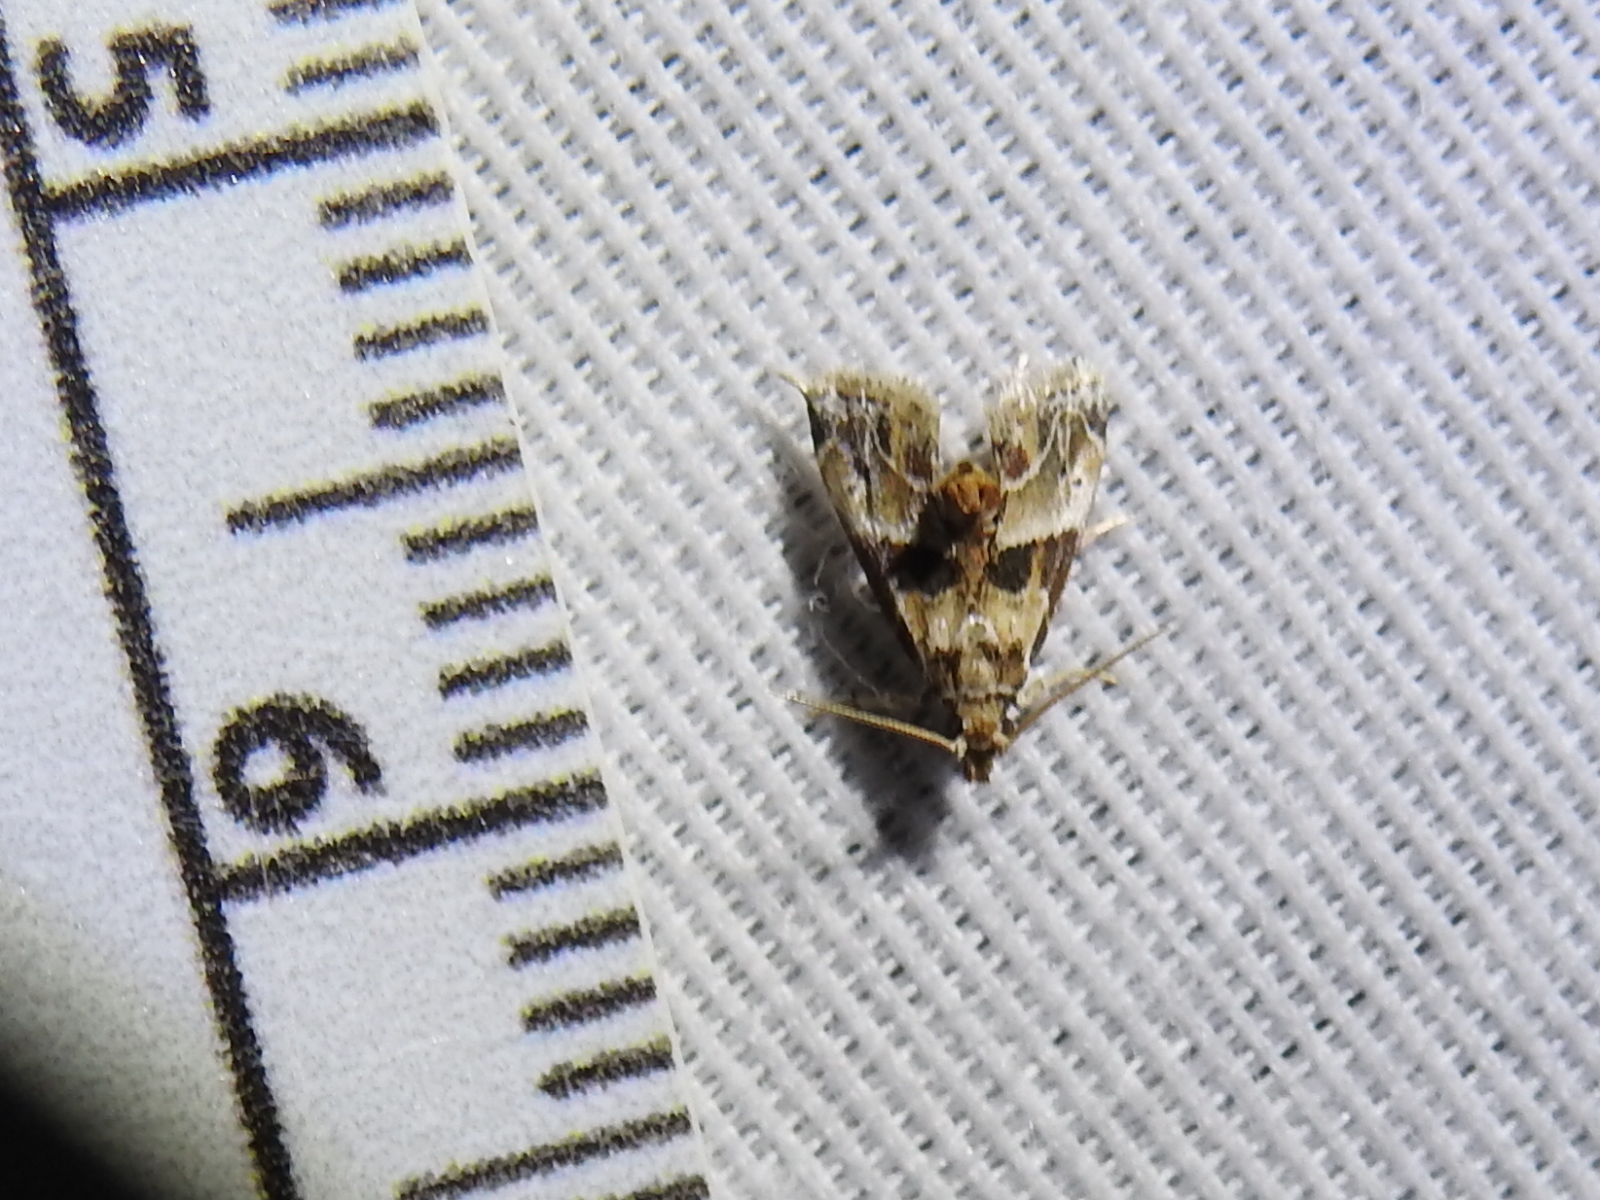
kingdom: Animalia
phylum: Arthropoda
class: Insecta
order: Lepidoptera
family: Pyralidae
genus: Neodavisia
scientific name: Neodavisia melusina
